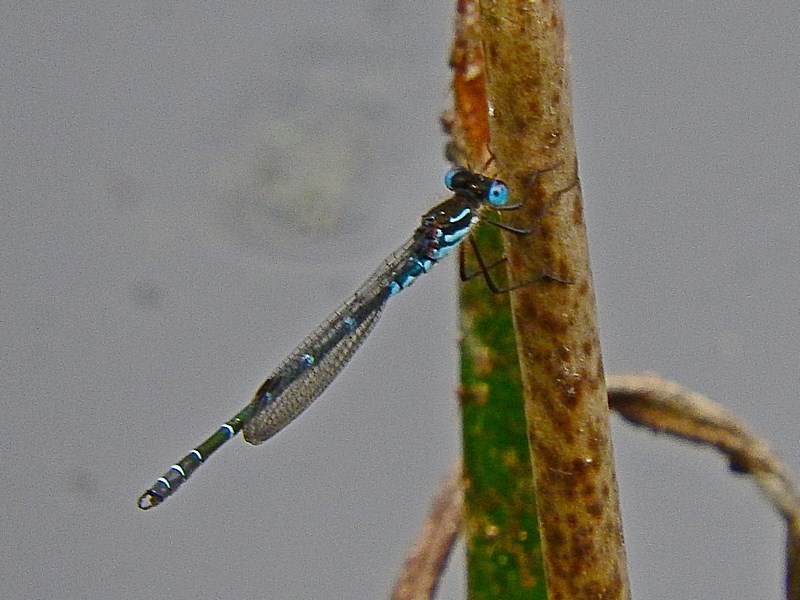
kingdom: Animalia
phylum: Arthropoda
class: Insecta
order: Odonata
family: Lestidae
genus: Austrolestes
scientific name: Austrolestes psyche
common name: Cup ringtail
